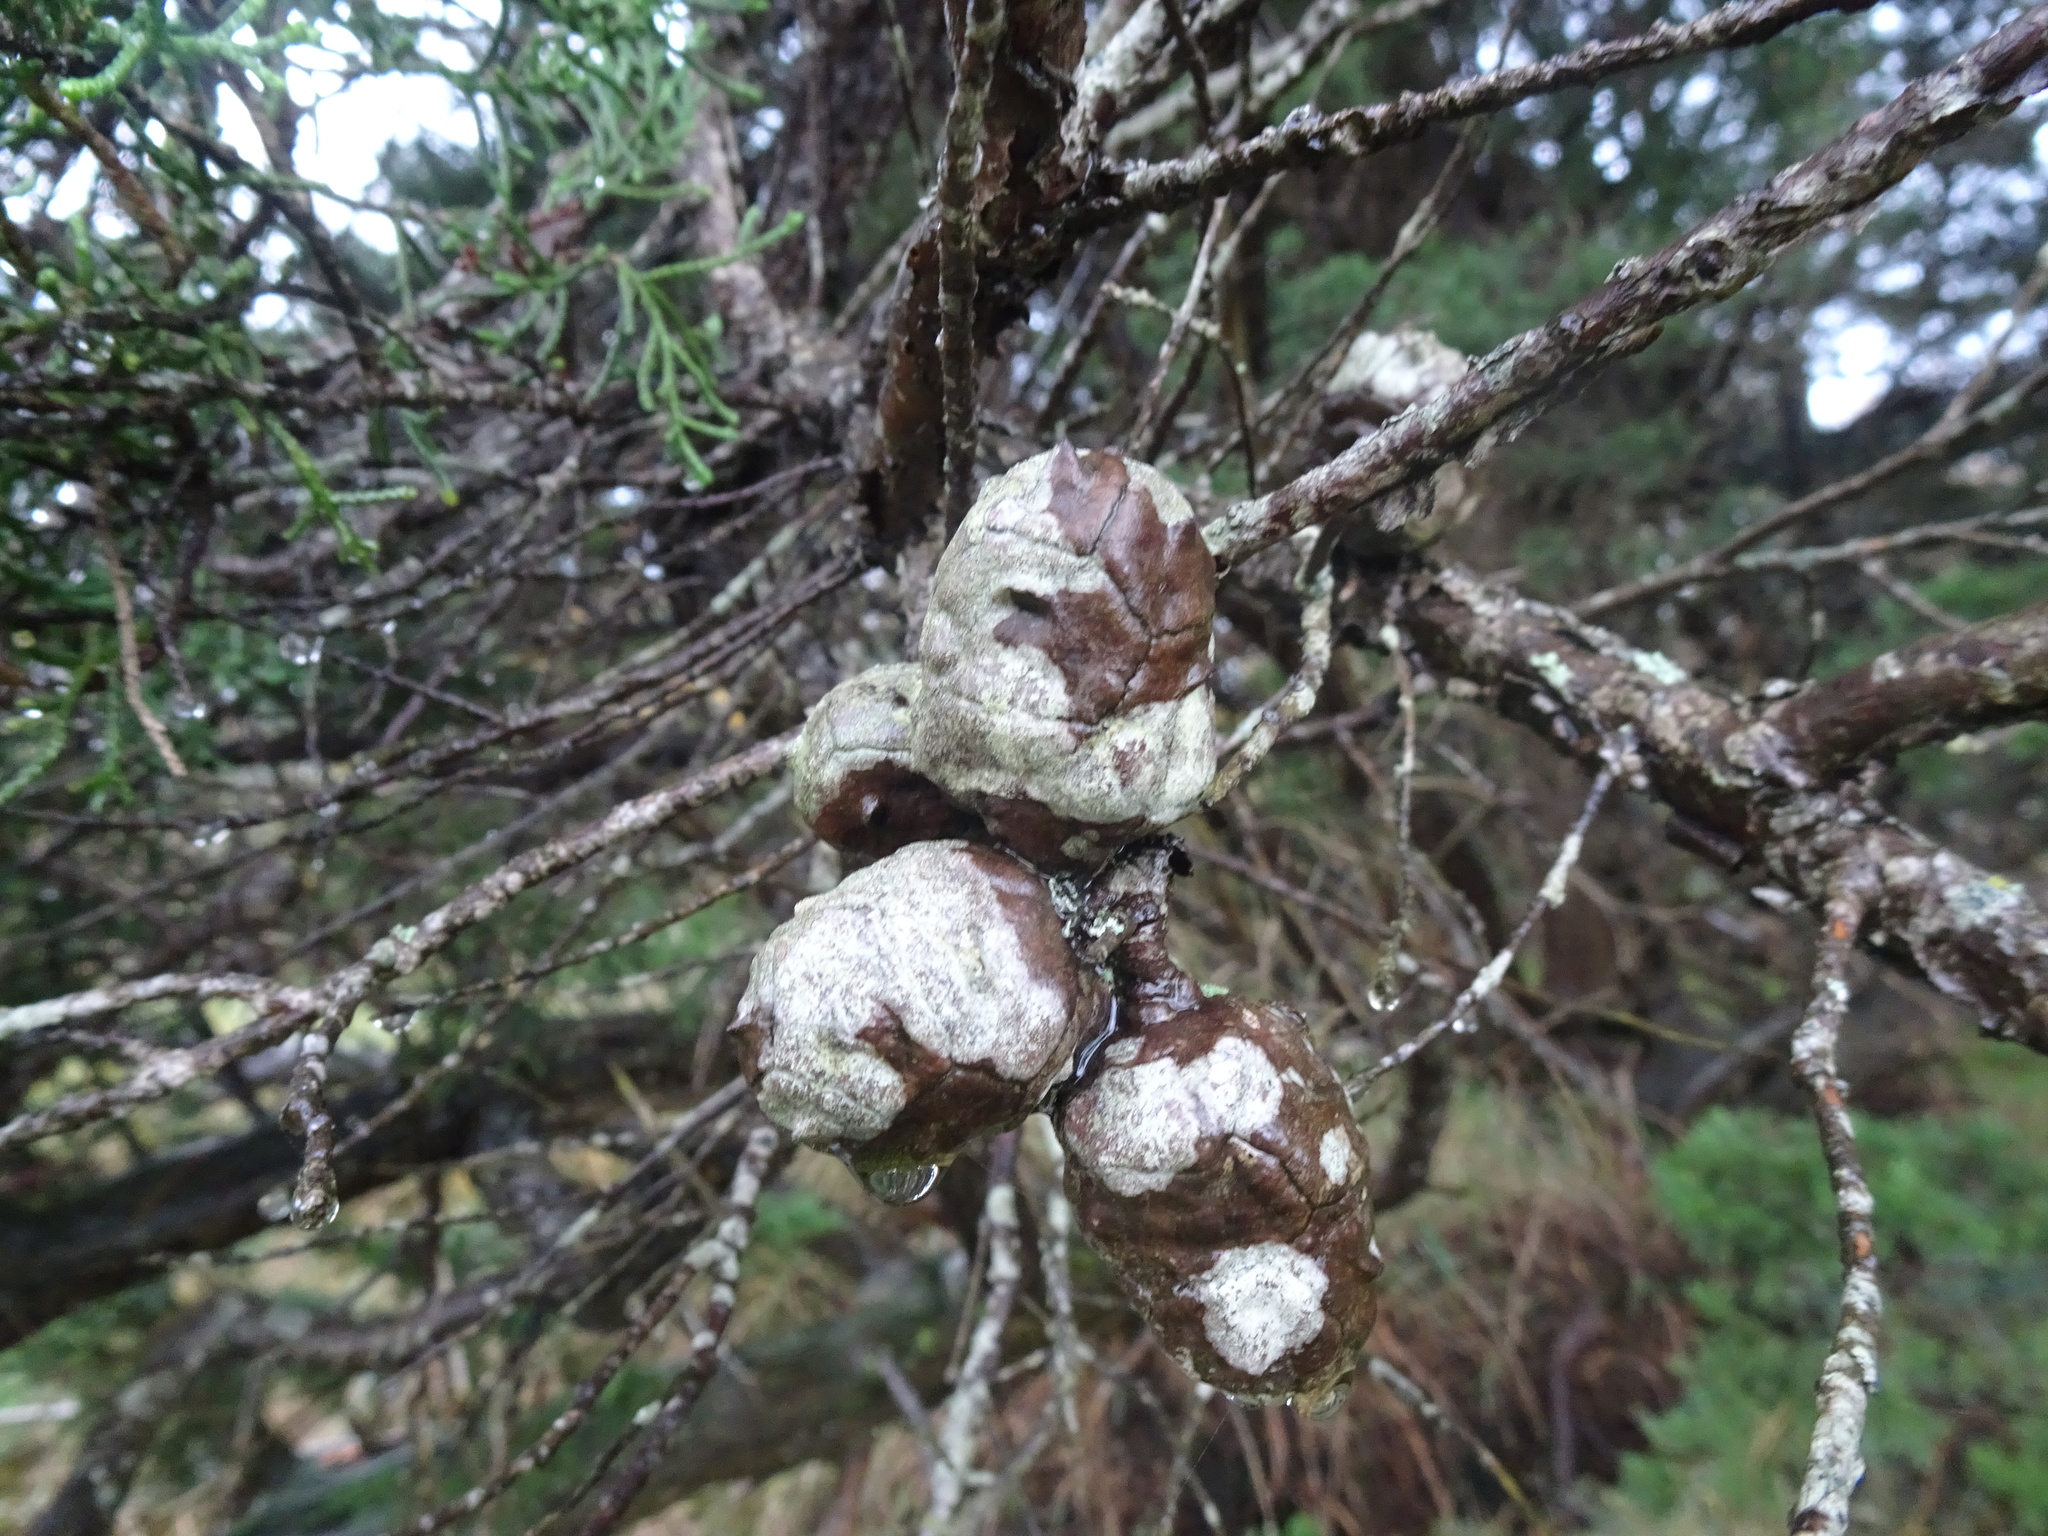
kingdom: Plantae
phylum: Tracheophyta
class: Pinopsida
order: Pinales
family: Cupressaceae
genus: Cupressus
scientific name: Cupressus macrocarpa
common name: Monterey cypress
